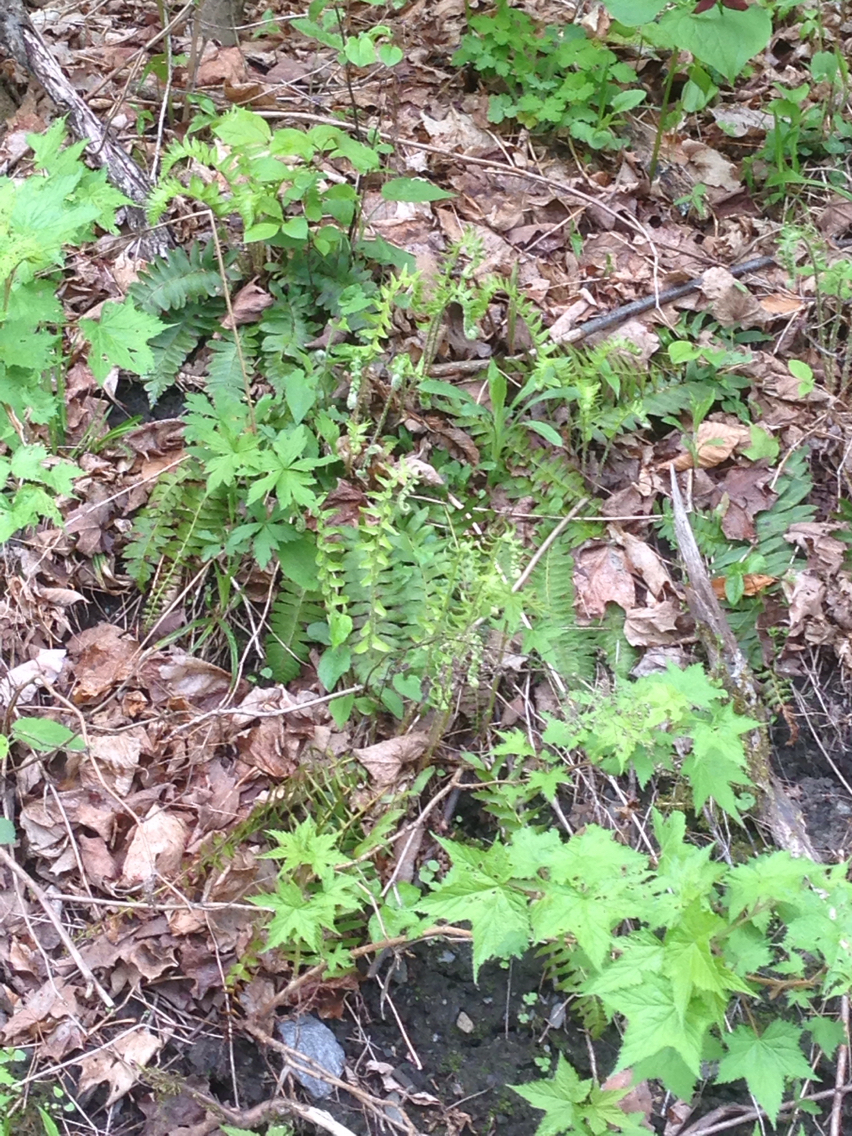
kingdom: Plantae
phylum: Tracheophyta
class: Polypodiopsida
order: Polypodiales
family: Dryopteridaceae
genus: Polystichum
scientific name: Polystichum acrostichoides
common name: Christmas fern
